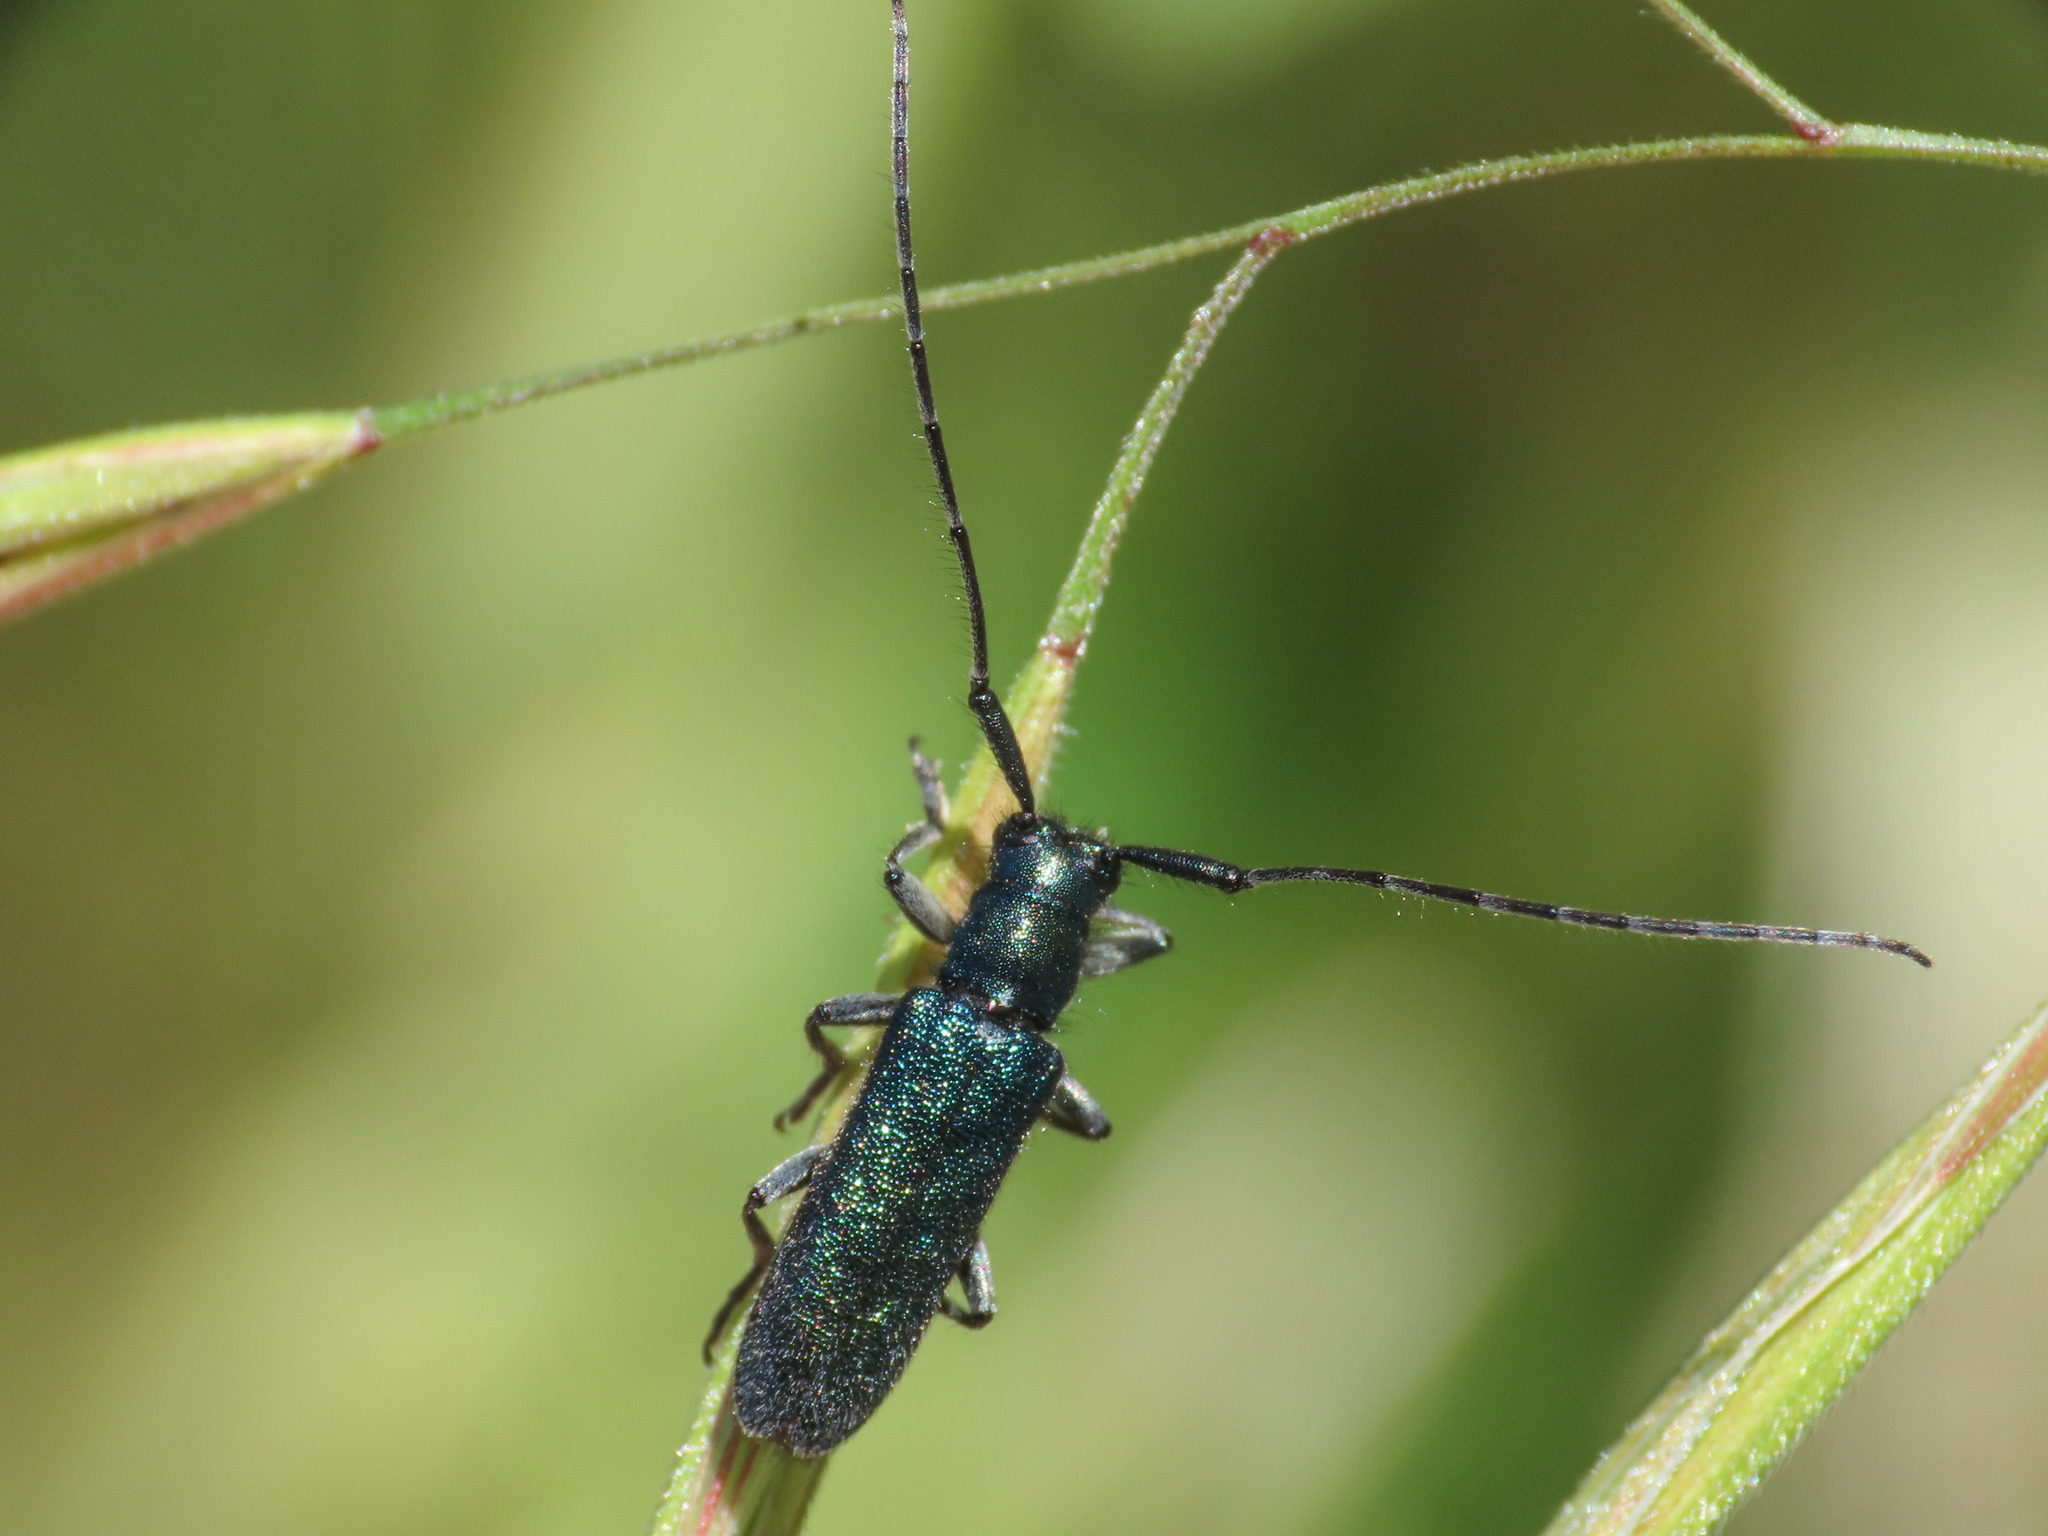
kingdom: Animalia
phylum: Arthropoda
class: Insecta
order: Coleoptera
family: Cerambycidae
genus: Agapanthia
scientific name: Agapanthia violacea
